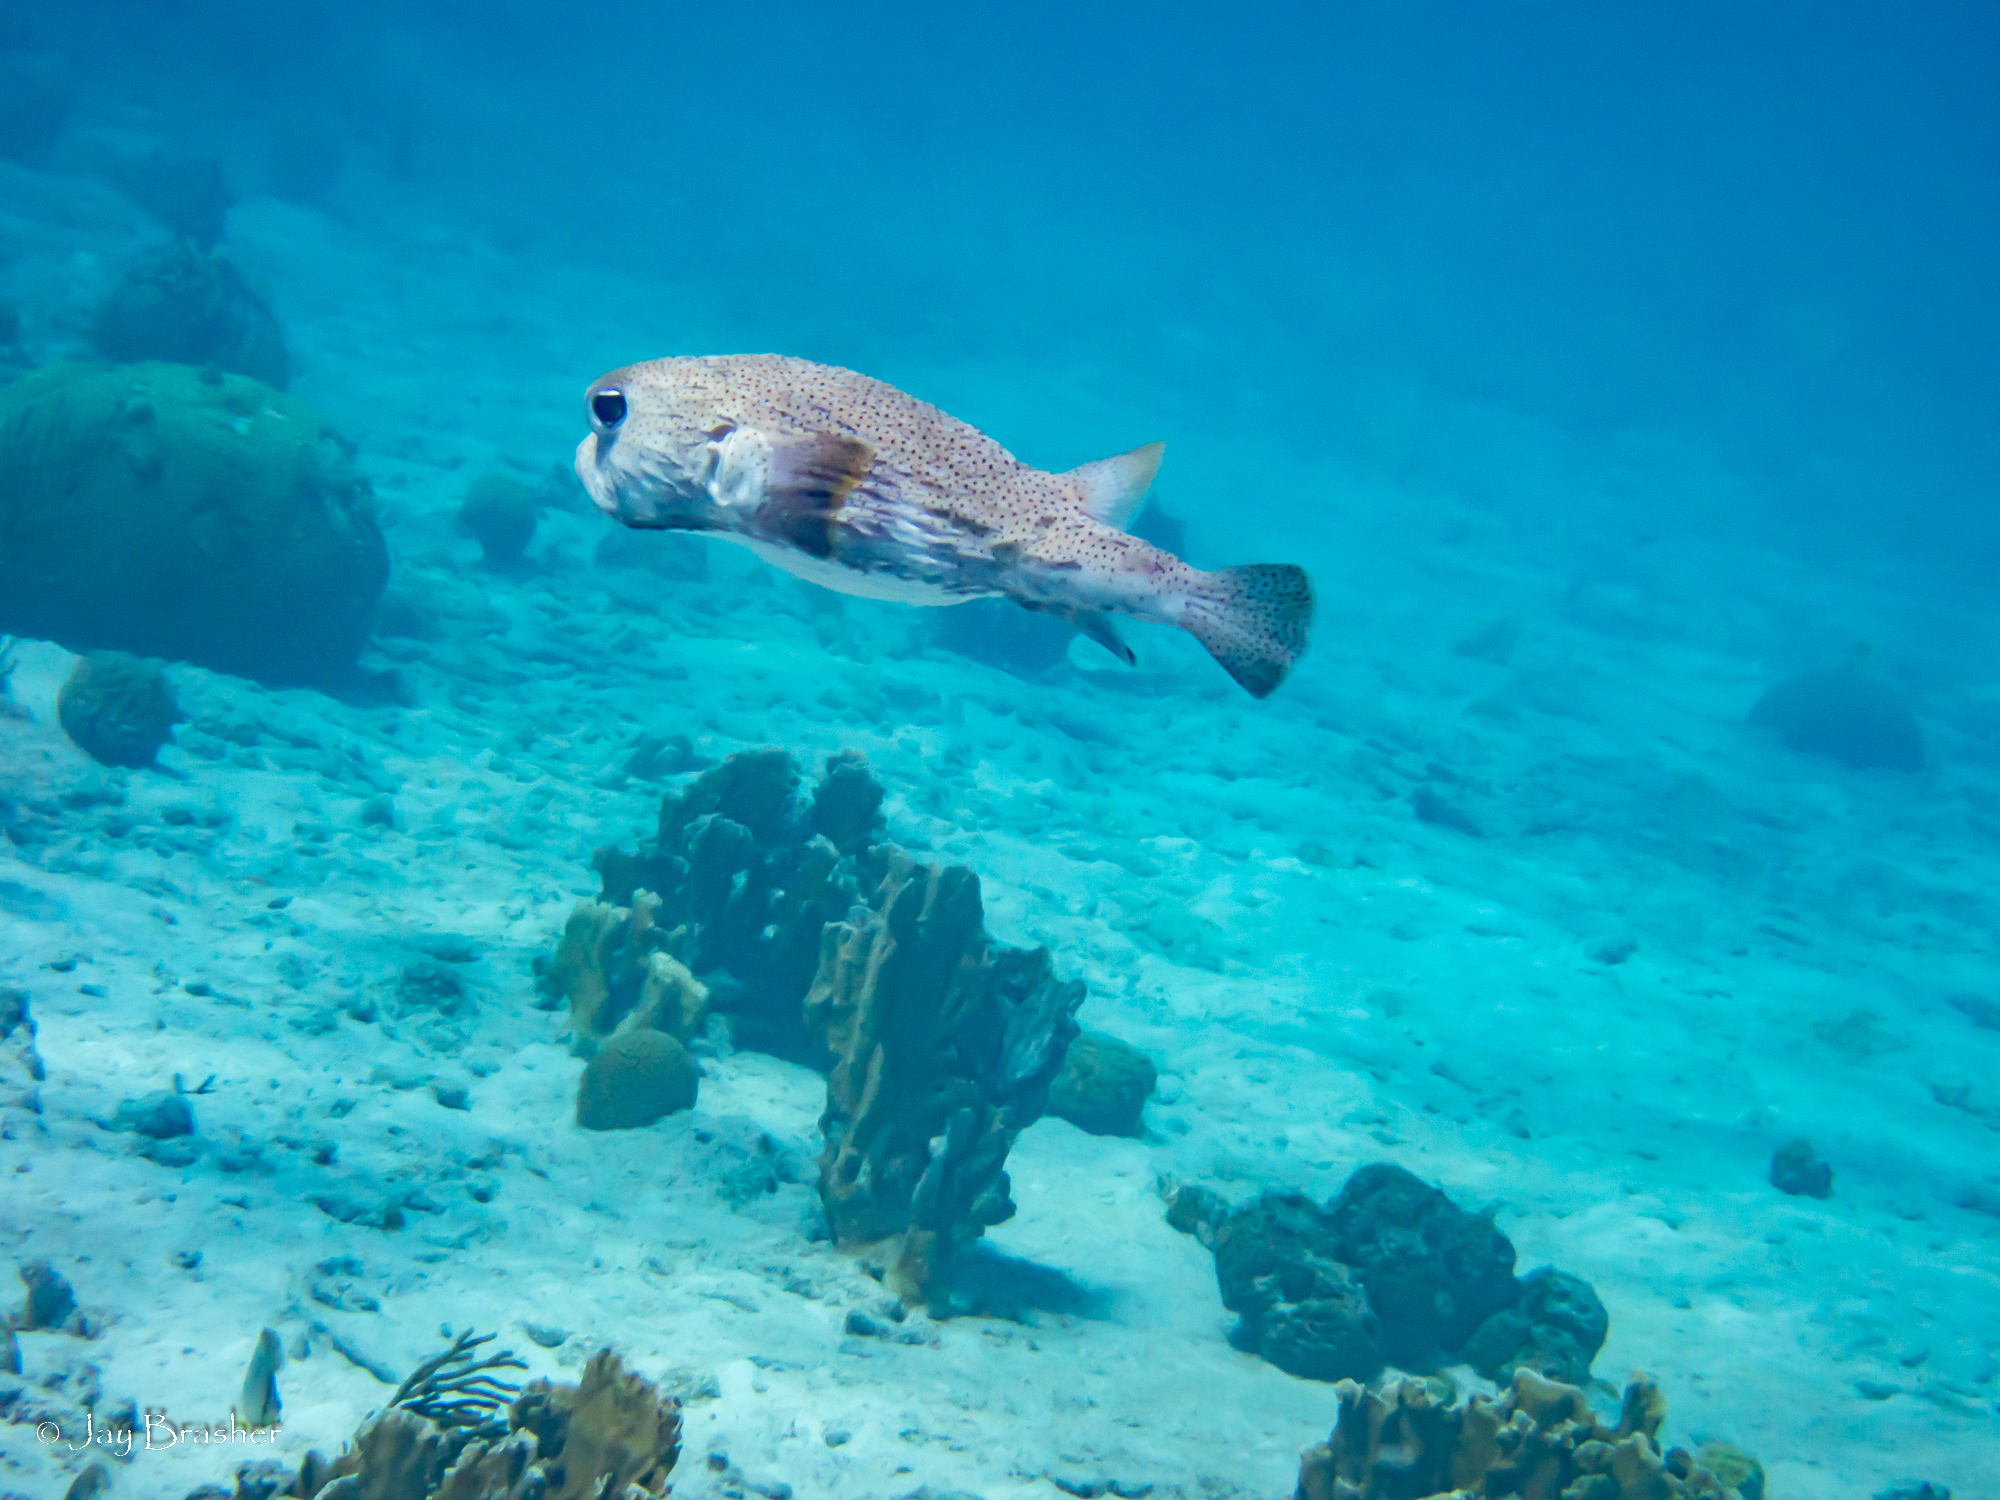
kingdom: Animalia
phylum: Chordata
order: Tetraodontiformes
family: Diodontidae
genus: Diodon
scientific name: Diodon hystrix
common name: Giant porcupinefish
